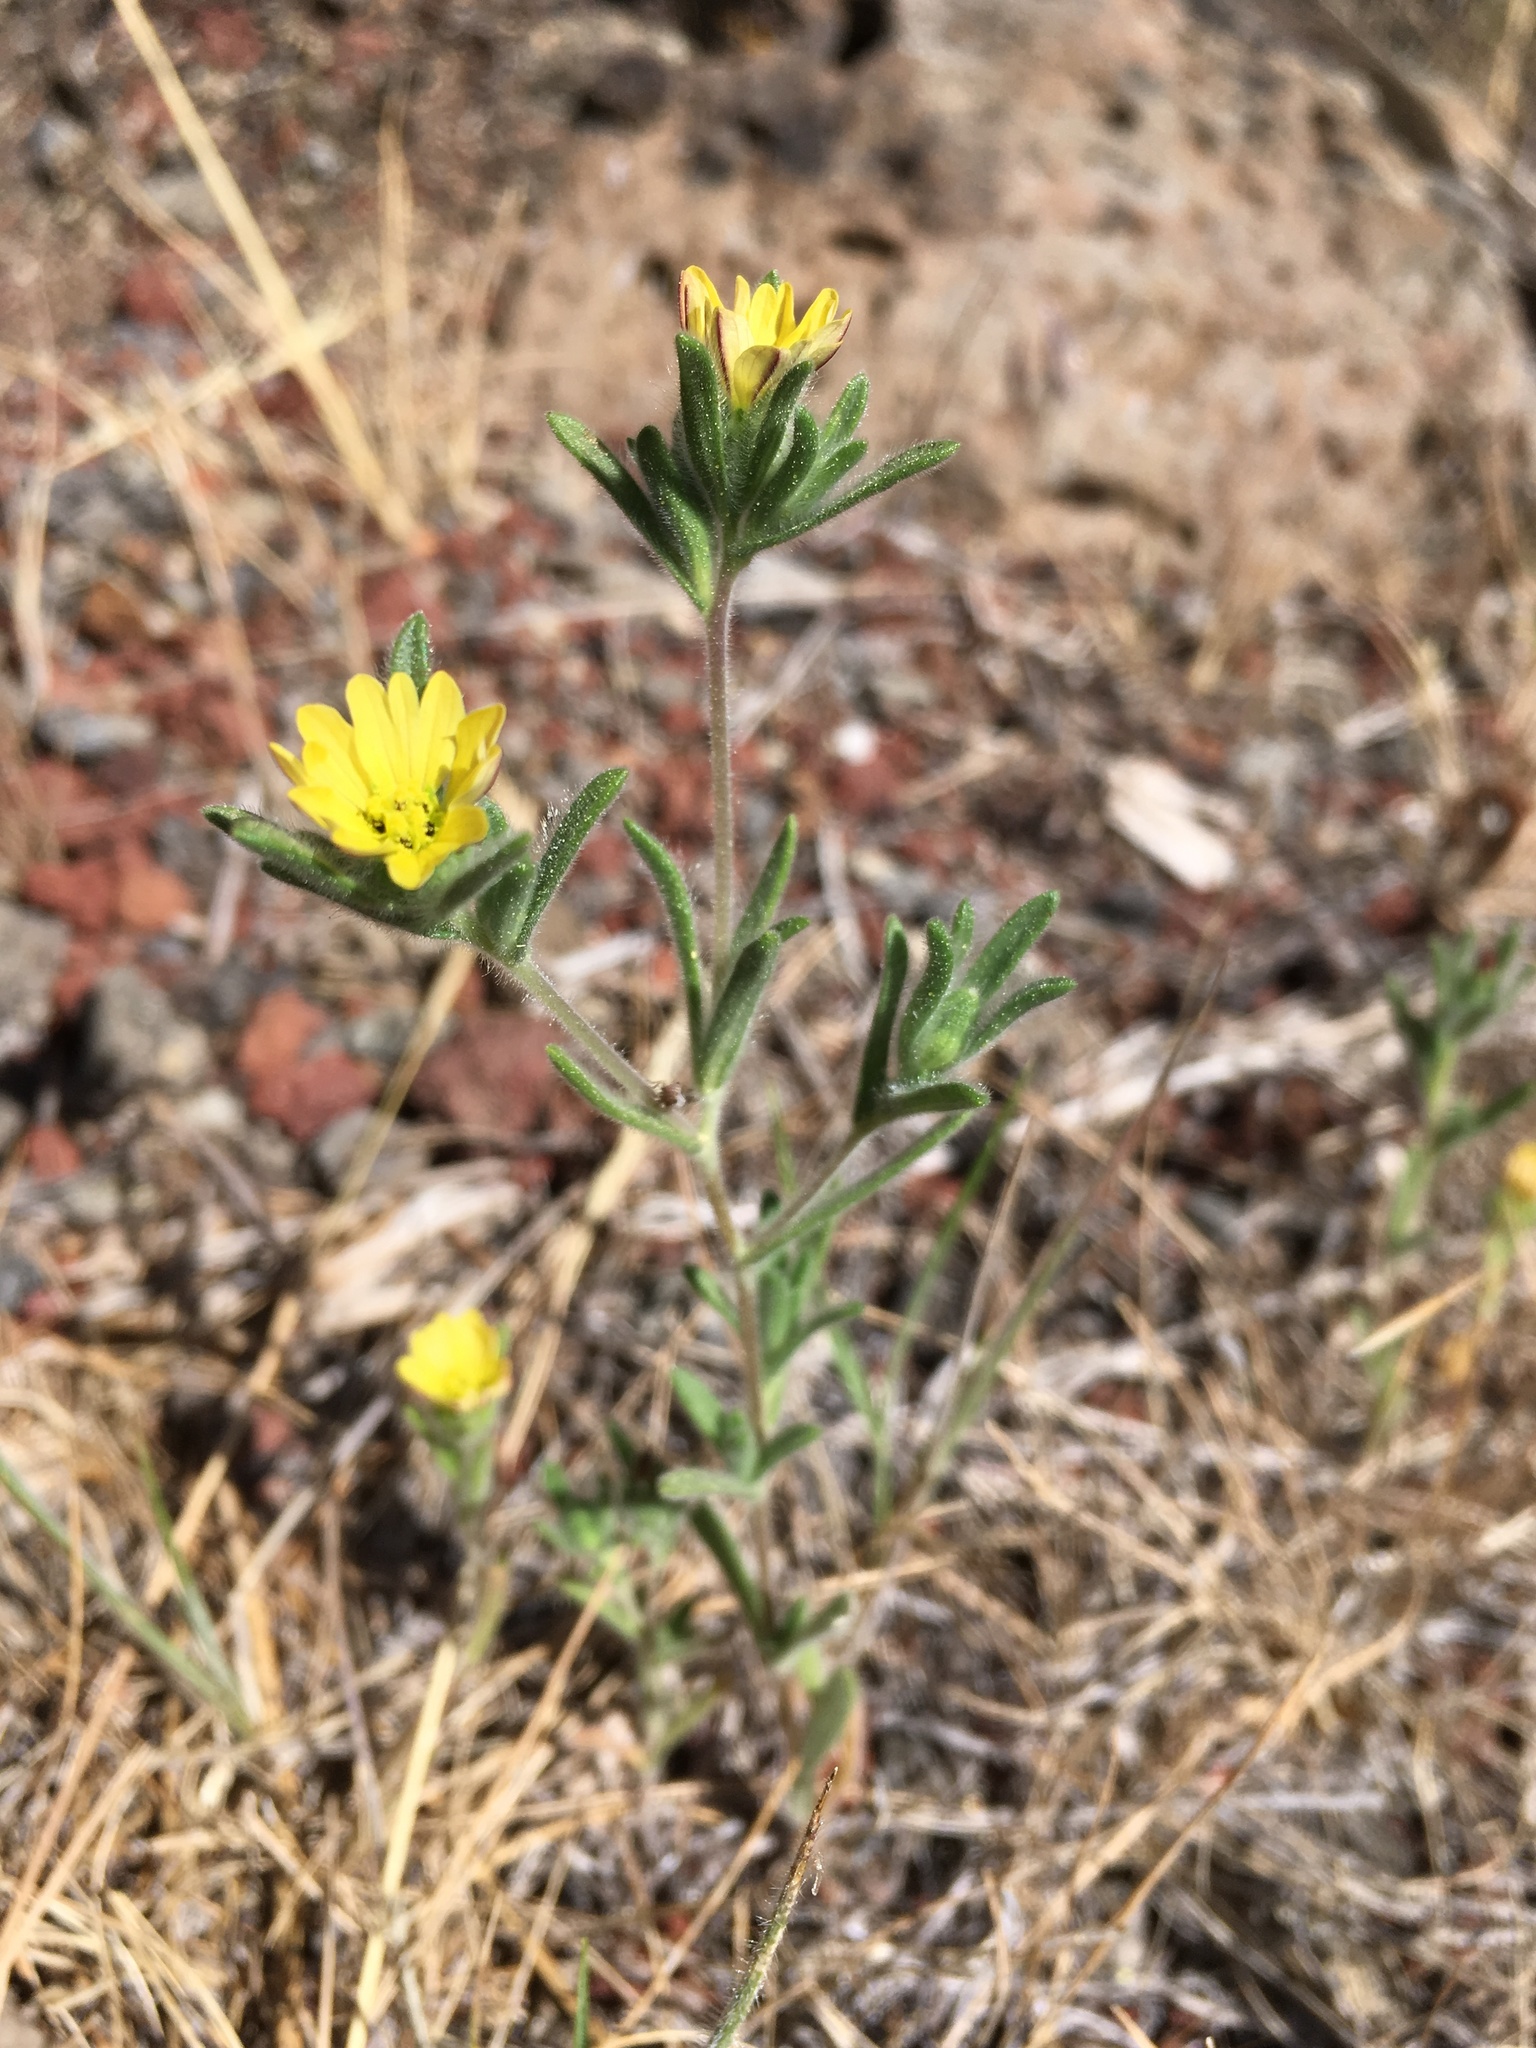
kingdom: Plantae
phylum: Tracheophyta
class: Magnoliopsida
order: Asterales
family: Asteraceae
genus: Lagophylla
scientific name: Lagophylla ramosissima
